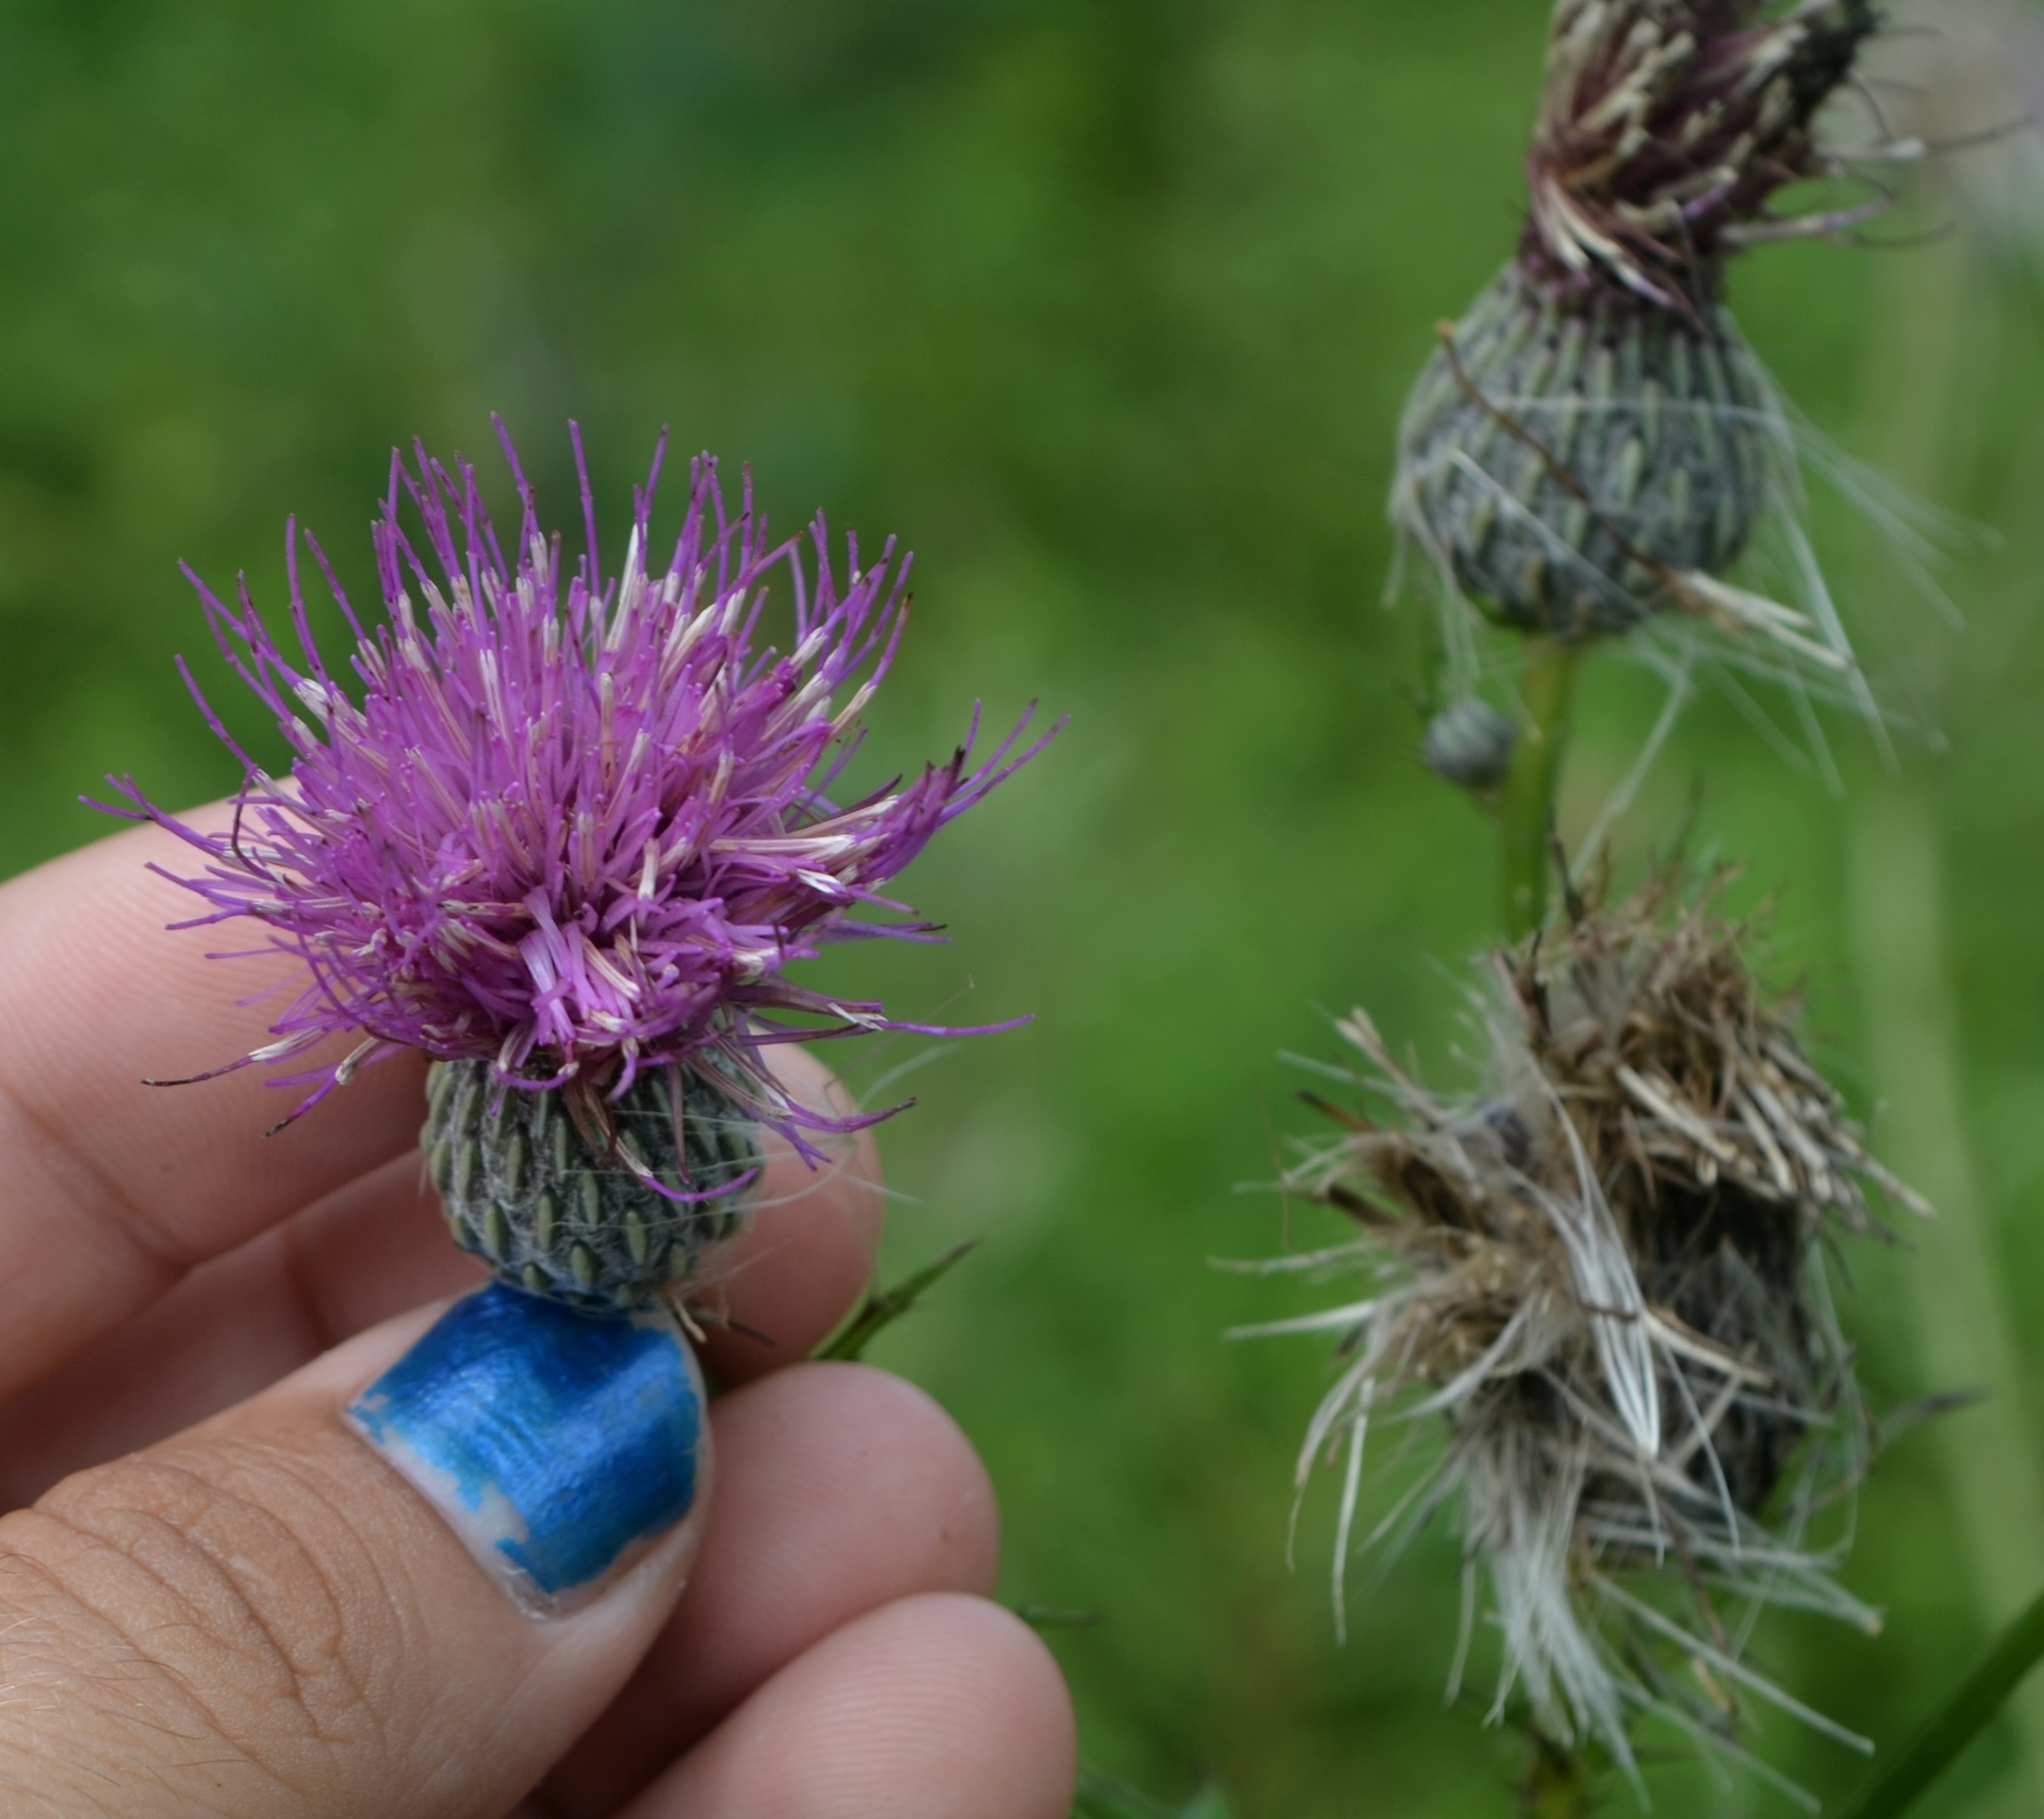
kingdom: Plantae
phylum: Tracheophyta
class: Magnoliopsida
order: Asterales
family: Asteraceae
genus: Cirsium
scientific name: Cirsium muticum
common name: Dunce-nettle
